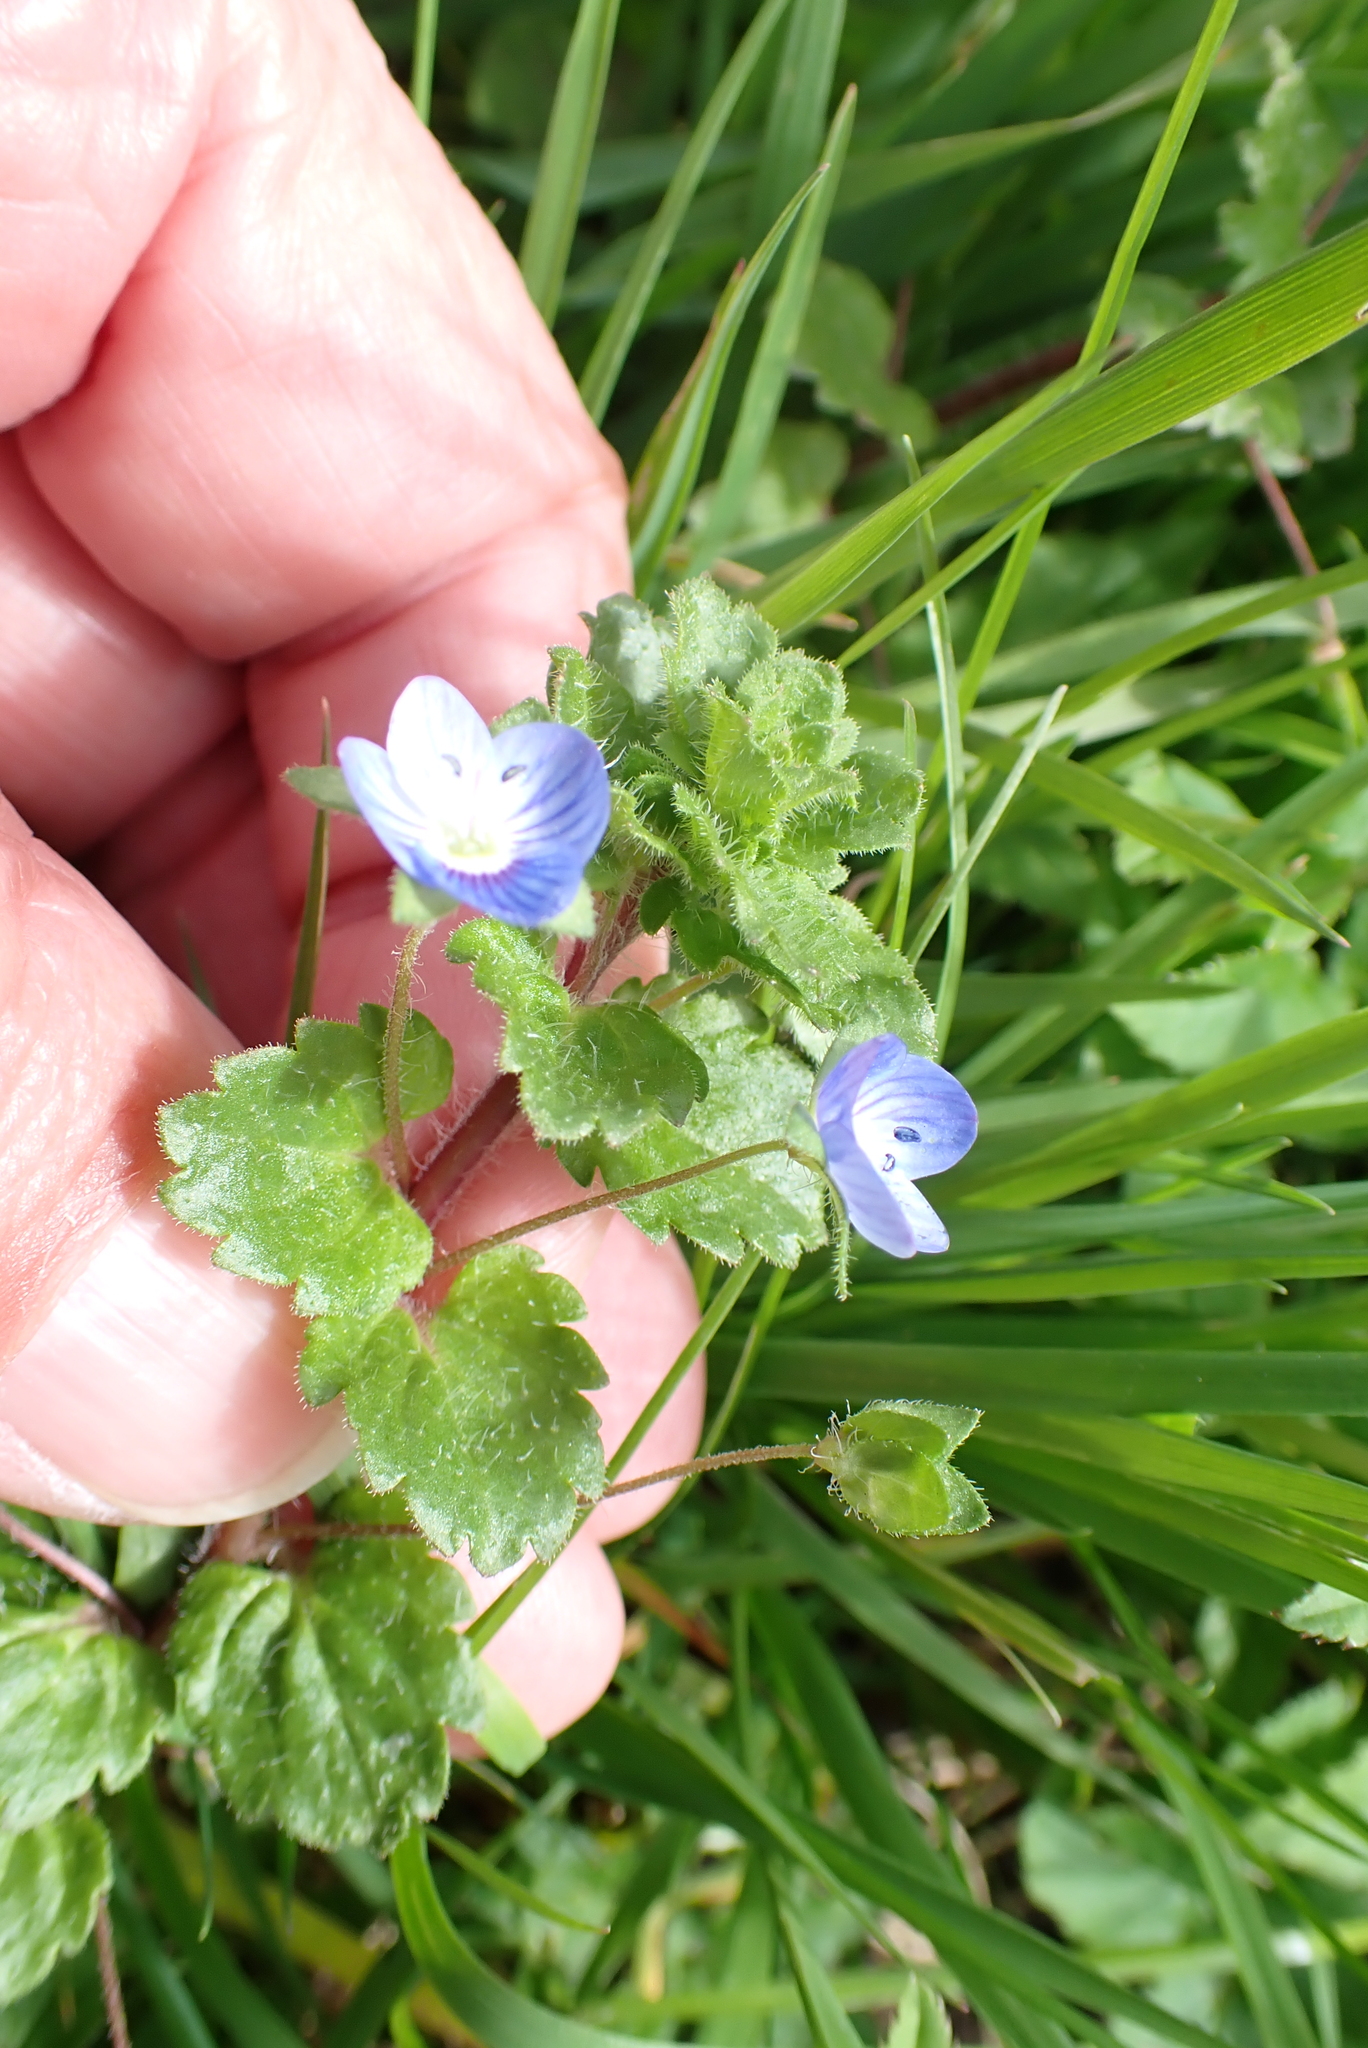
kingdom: Plantae
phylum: Tracheophyta
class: Magnoliopsida
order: Lamiales
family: Plantaginaceae
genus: Veronica
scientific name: Veronica persica
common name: Common field-speedwell
